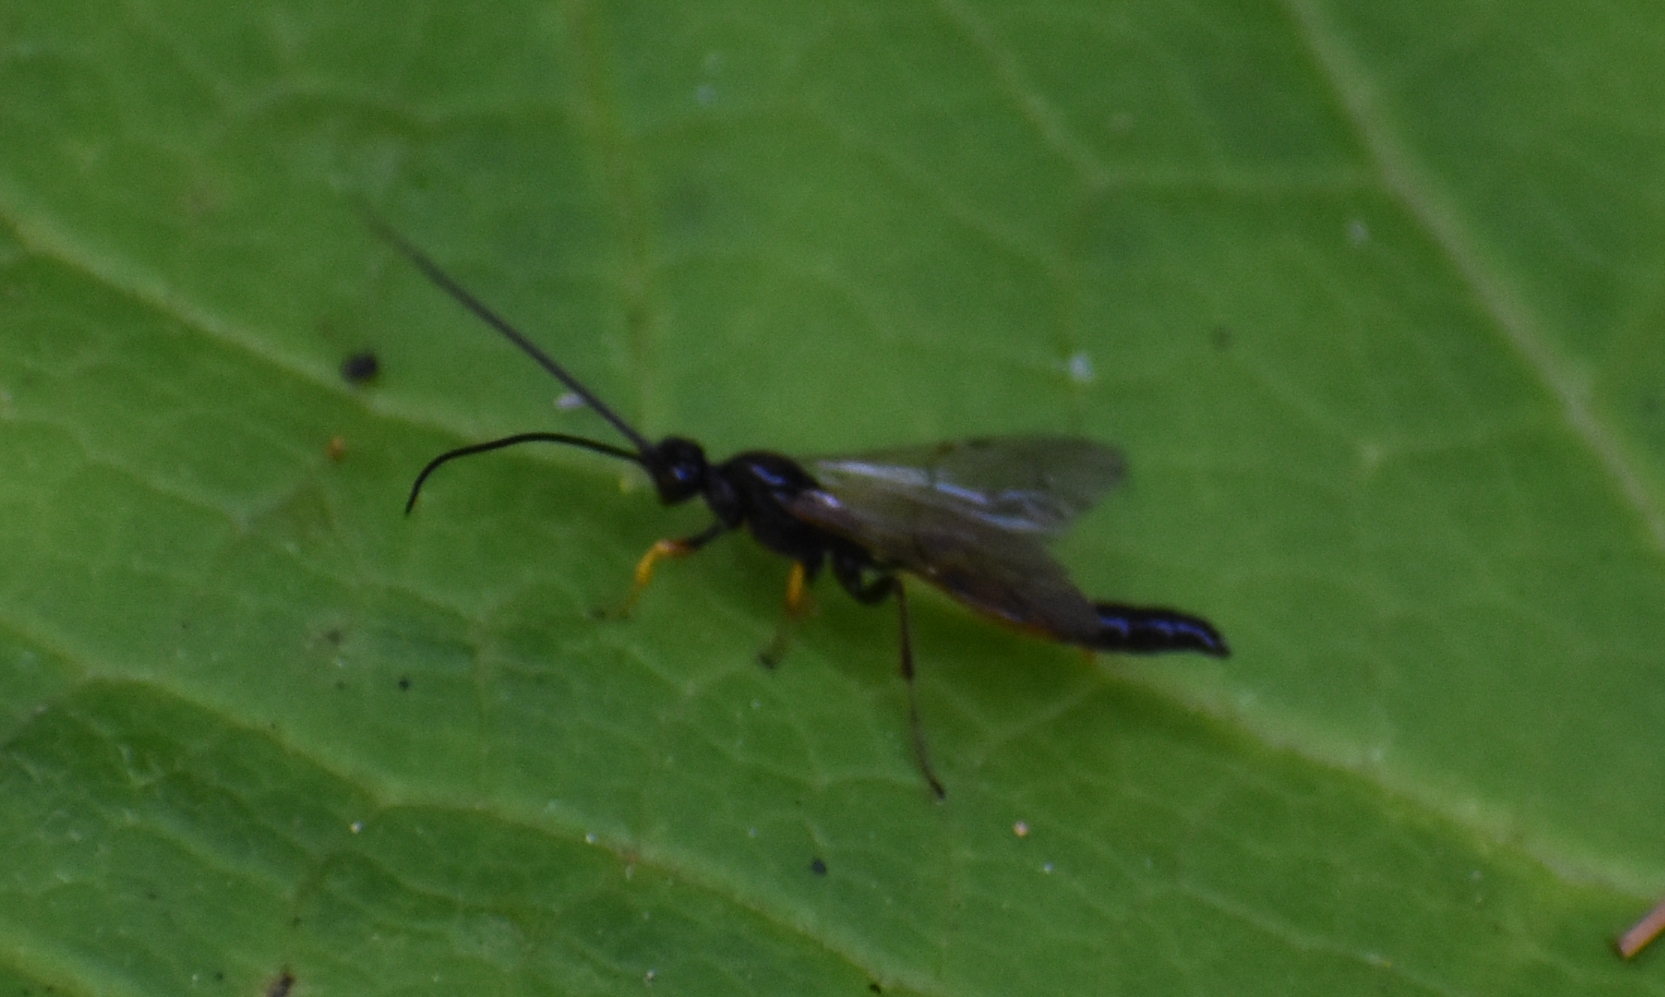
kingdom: Animalia
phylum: Arthropoda
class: Insecta
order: Hymenoptera
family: Ichneumonidae
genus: Alomya
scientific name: Alomya
